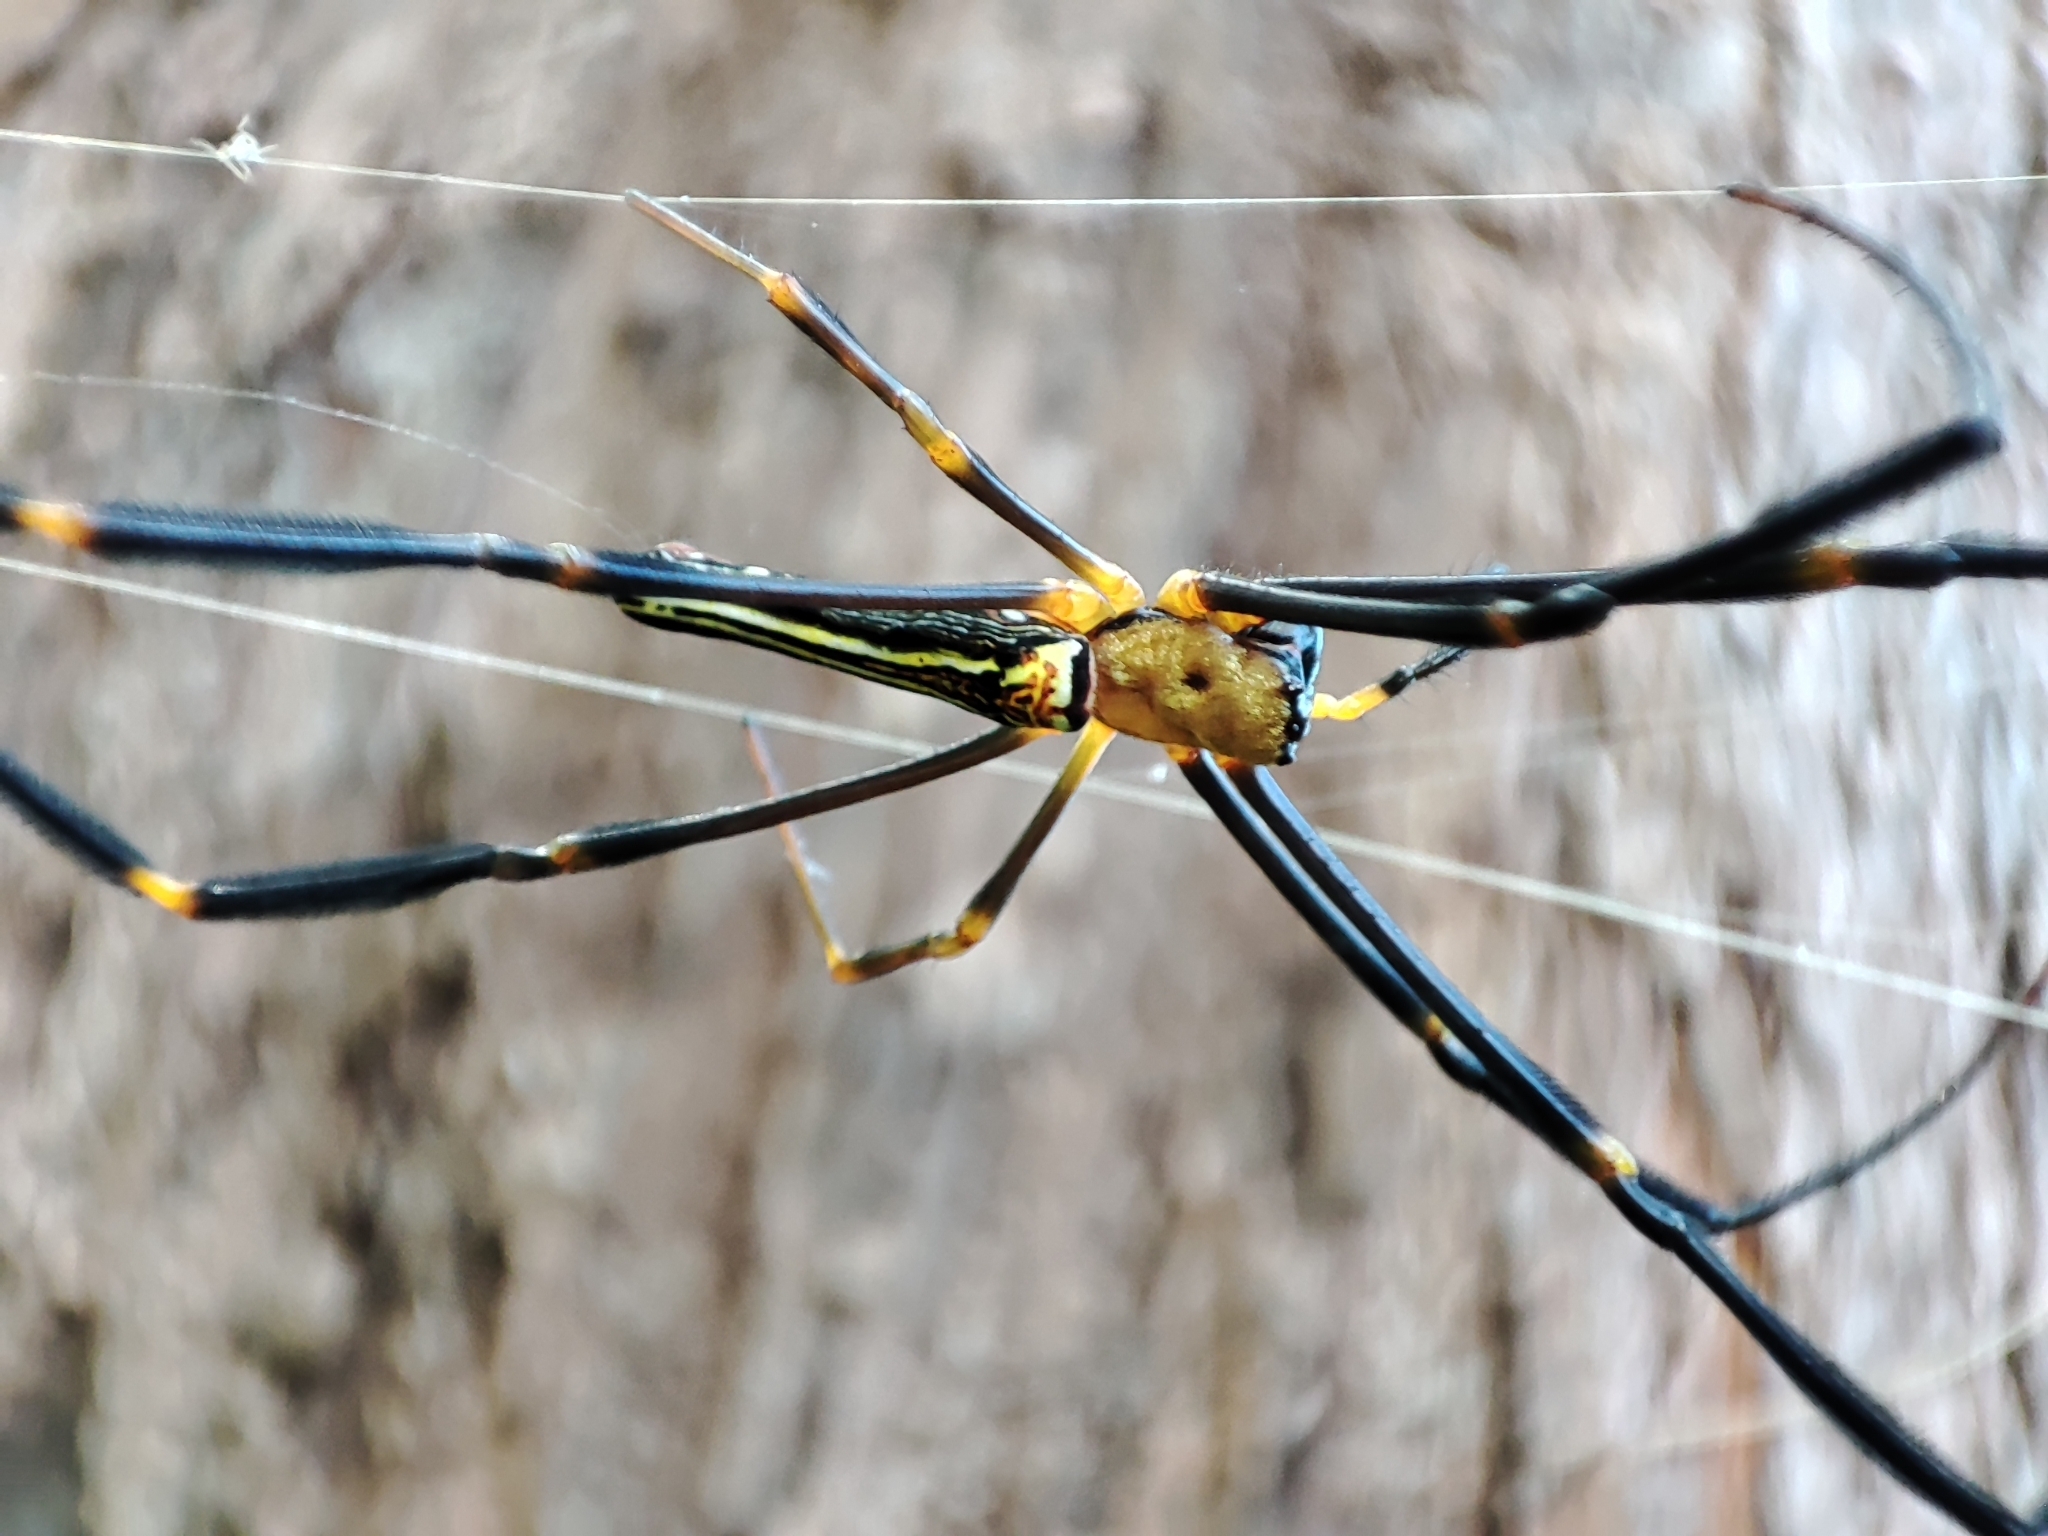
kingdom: Animalia
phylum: Arthropoda
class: Arachnida
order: Araneae
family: Araneidae
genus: Nephila
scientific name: Nephila pilipes
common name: Giant golden orb weaver
